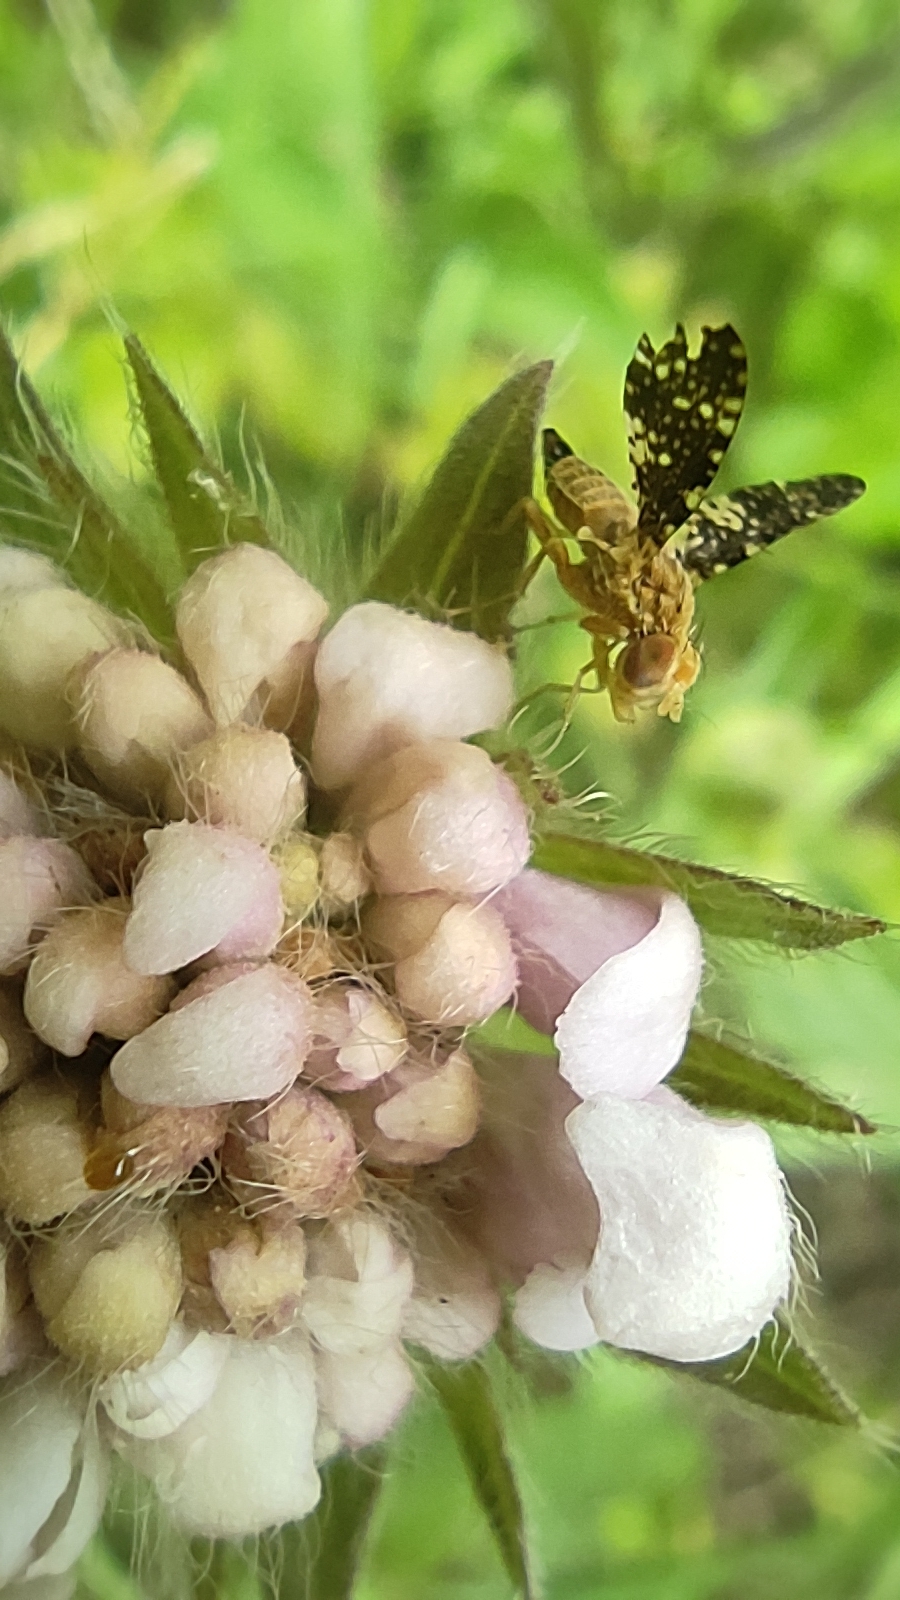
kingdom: Animalia
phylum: Arthropoda
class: Insecta
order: Diptera
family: Tephritidae
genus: Oxyna
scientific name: Oxyna flavipennis
